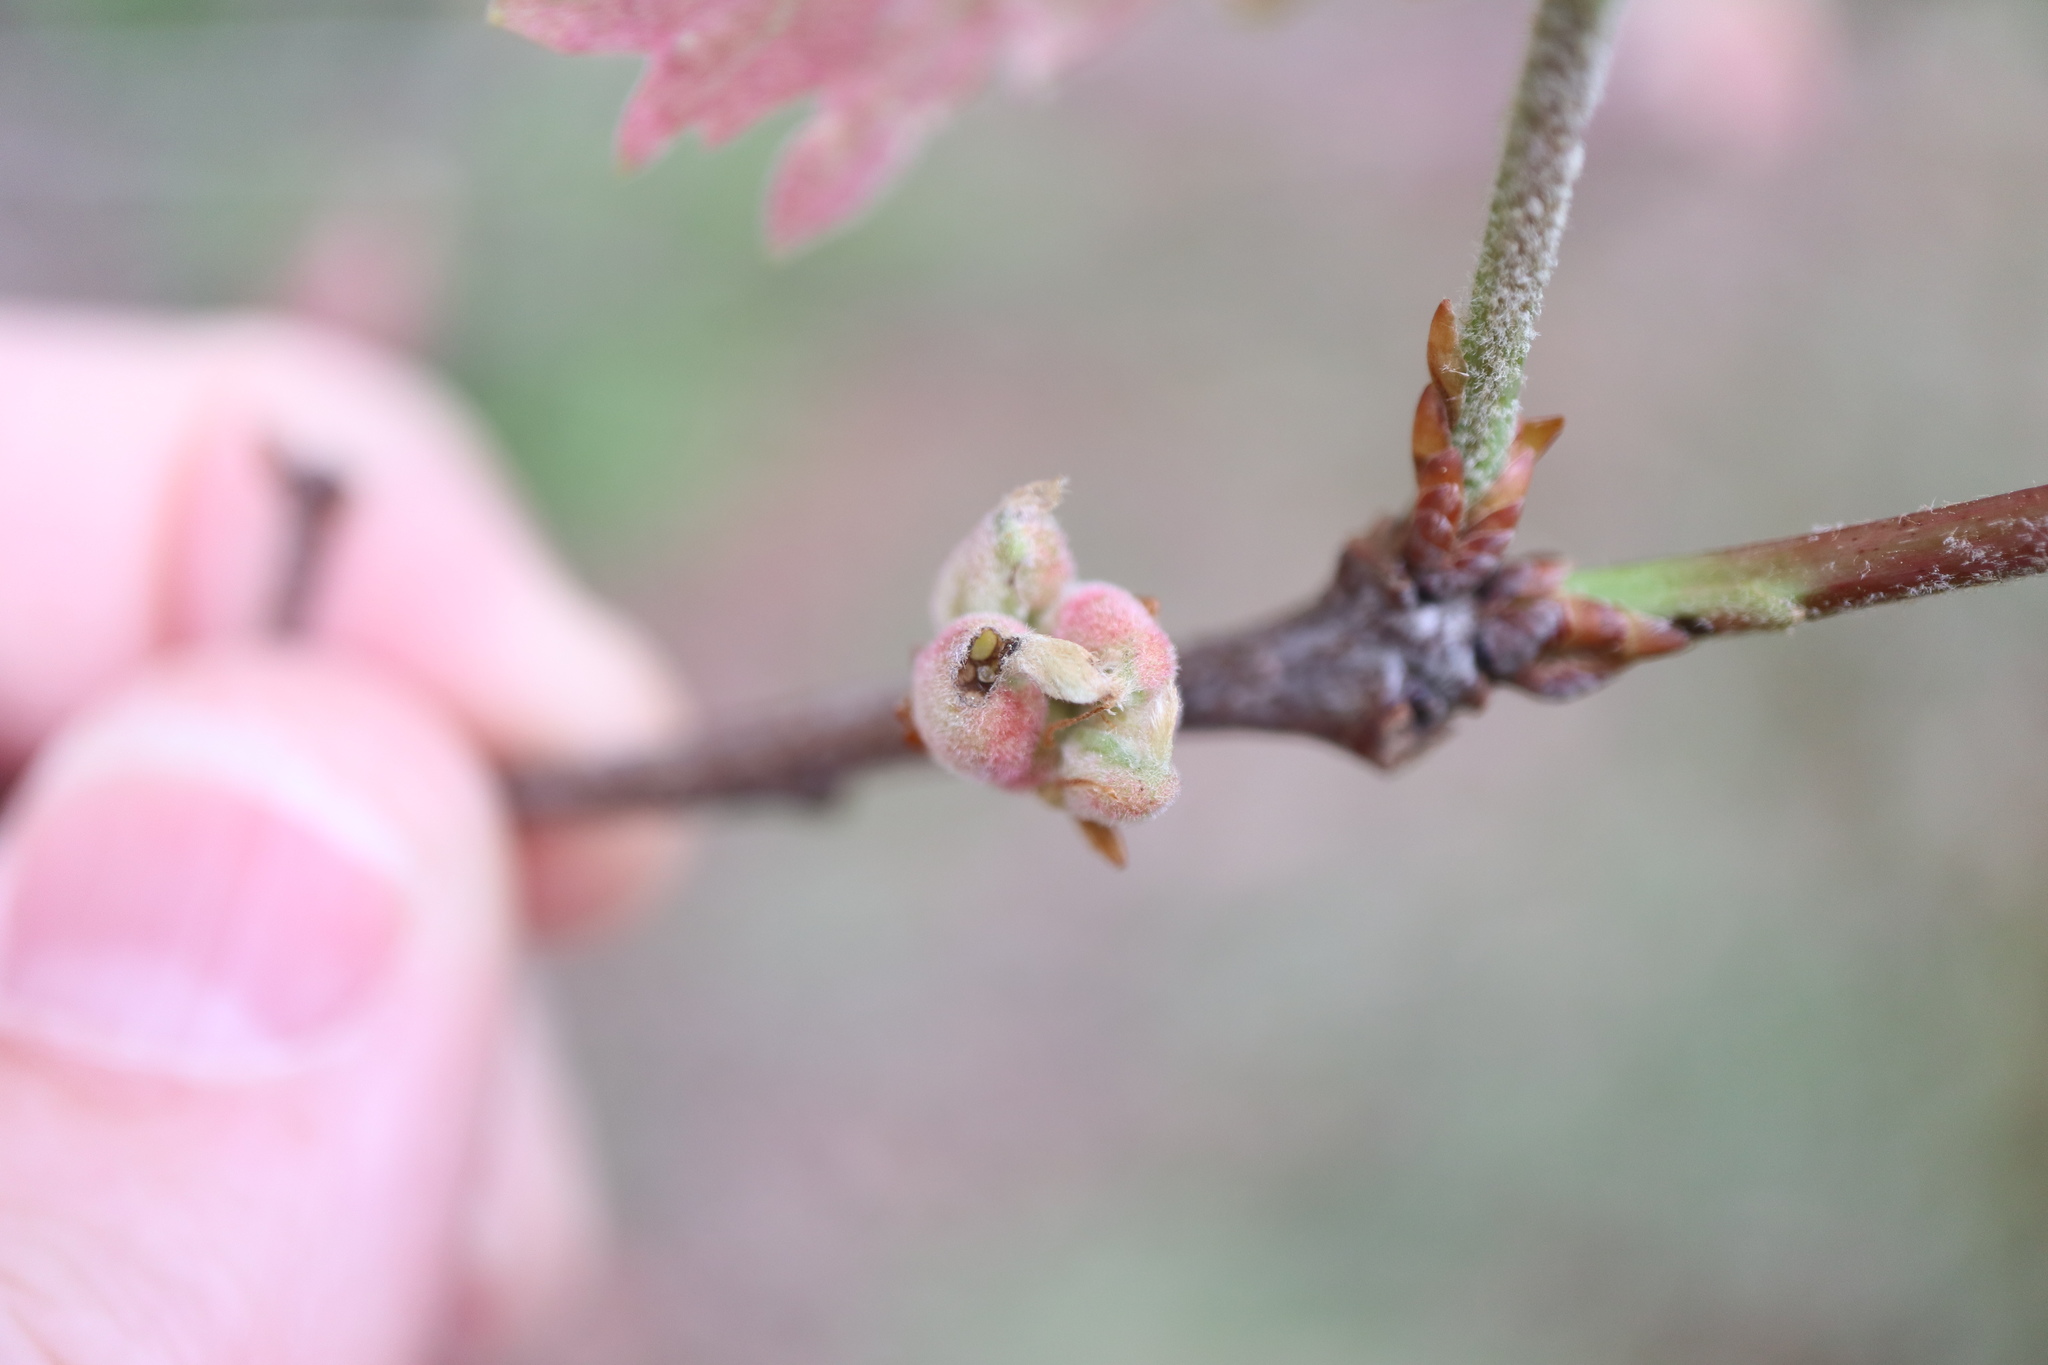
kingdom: Animalia
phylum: Arthropoda
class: Insecta
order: Hymenoptera
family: Cynipidae
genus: Neuroterus
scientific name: Neuroterus minutulus
